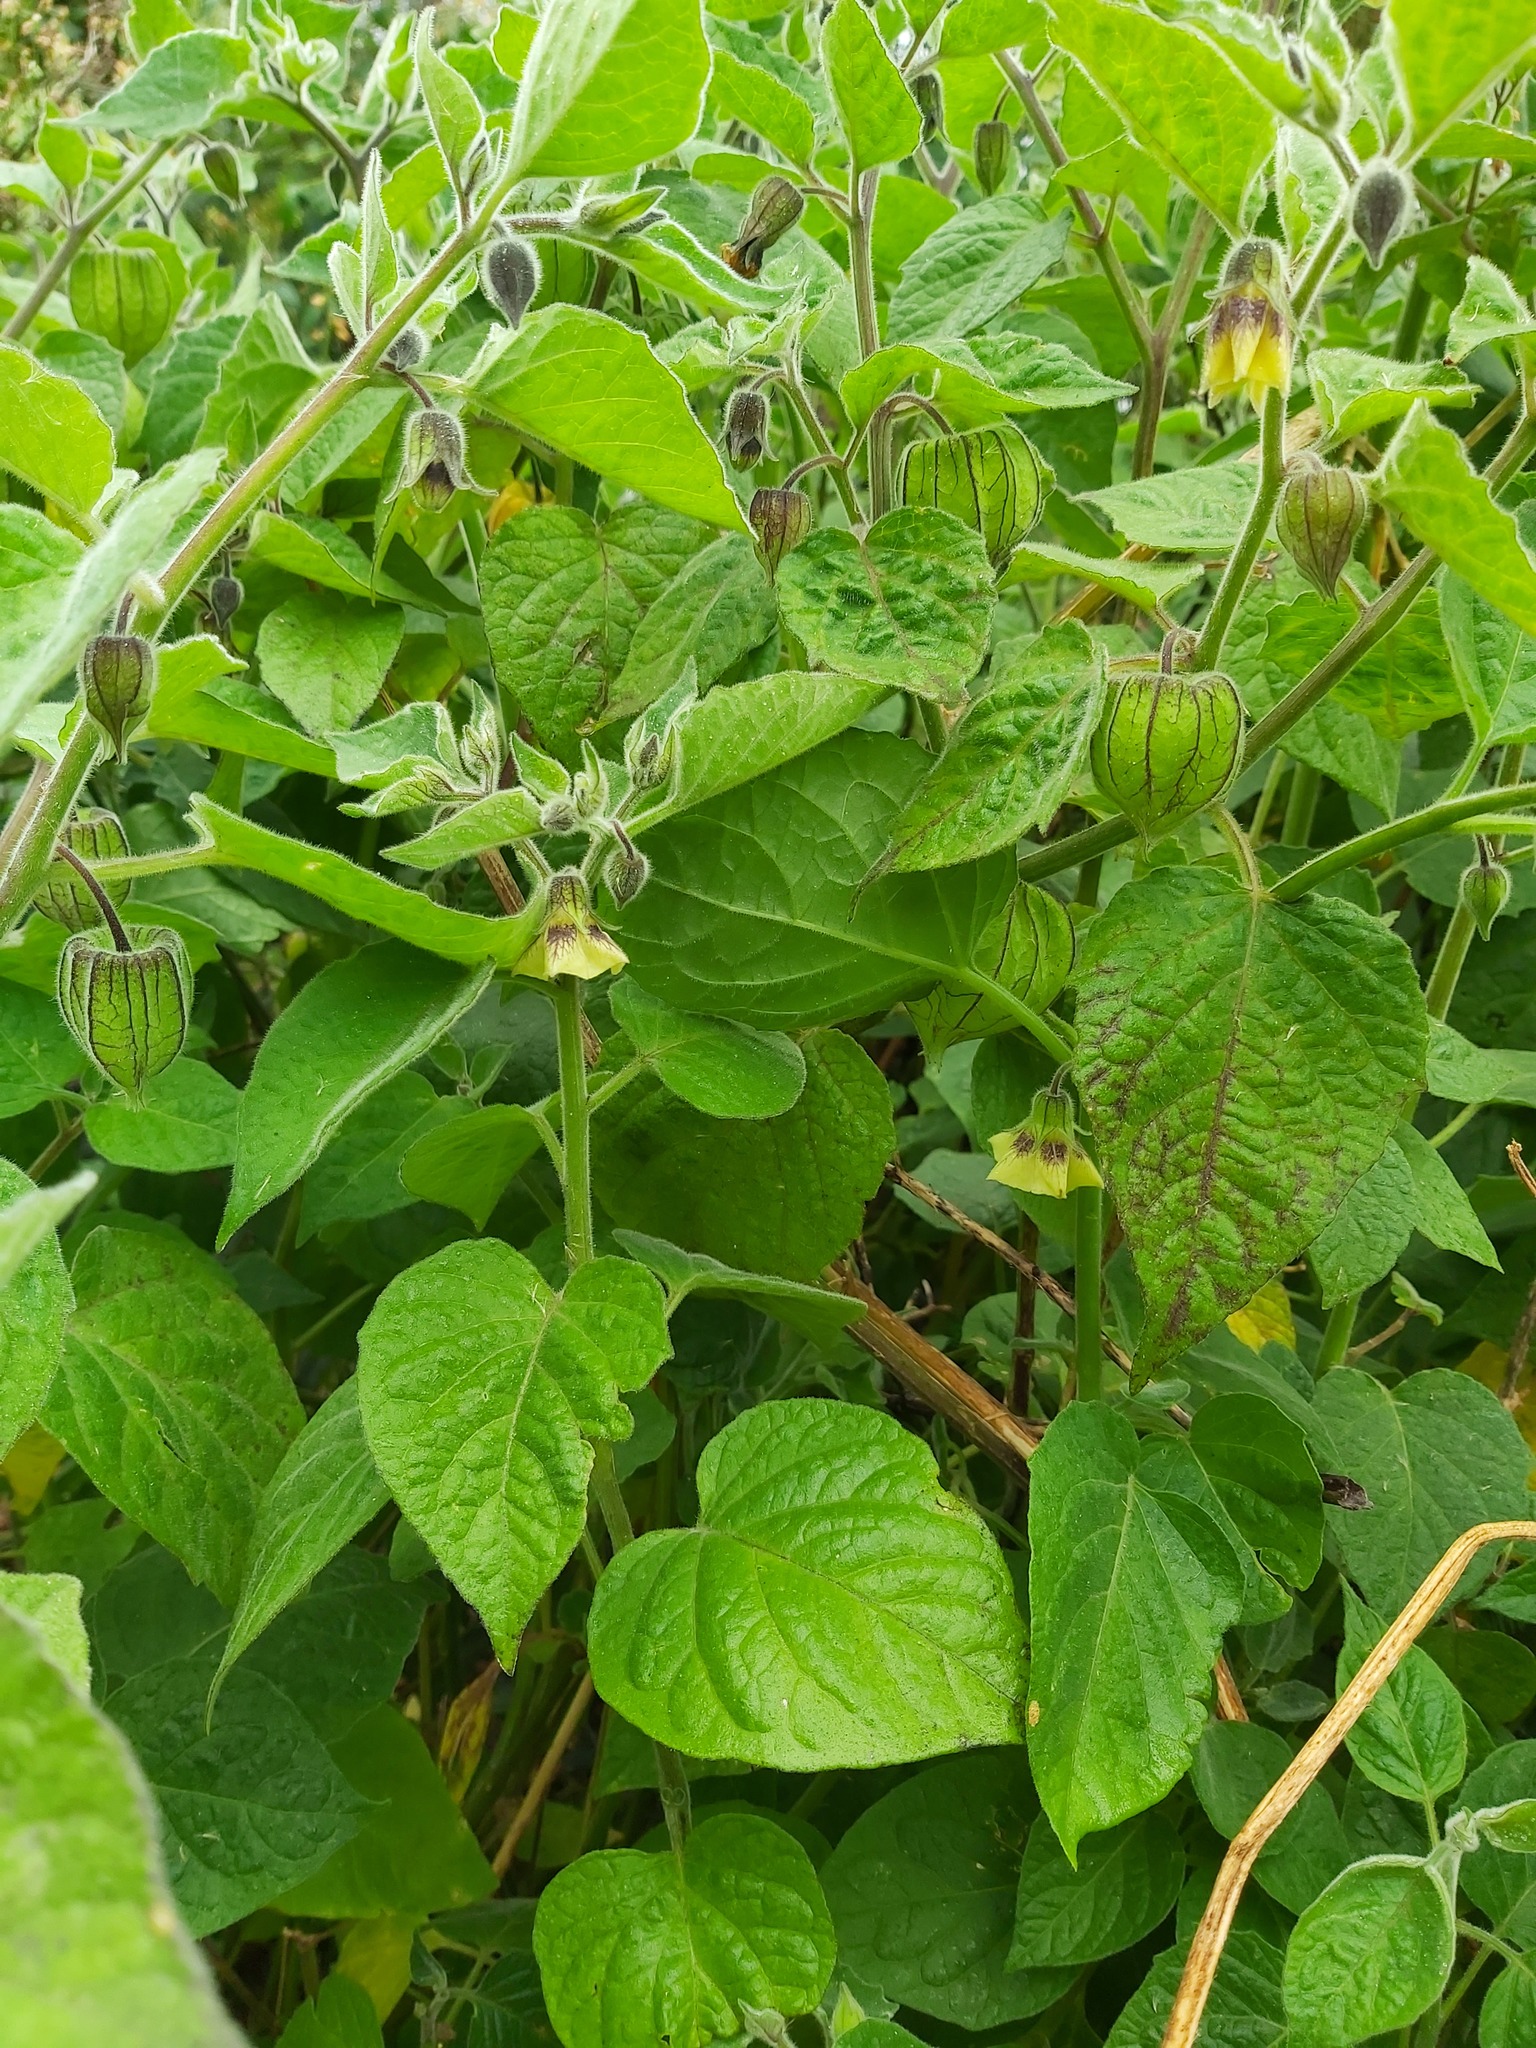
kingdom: Plantae
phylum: Tracheophyta
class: Magnoliopsida
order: Solanales
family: Solanaceae
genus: Physalis
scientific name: Physalis peruviana
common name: Cape-gooseberry
